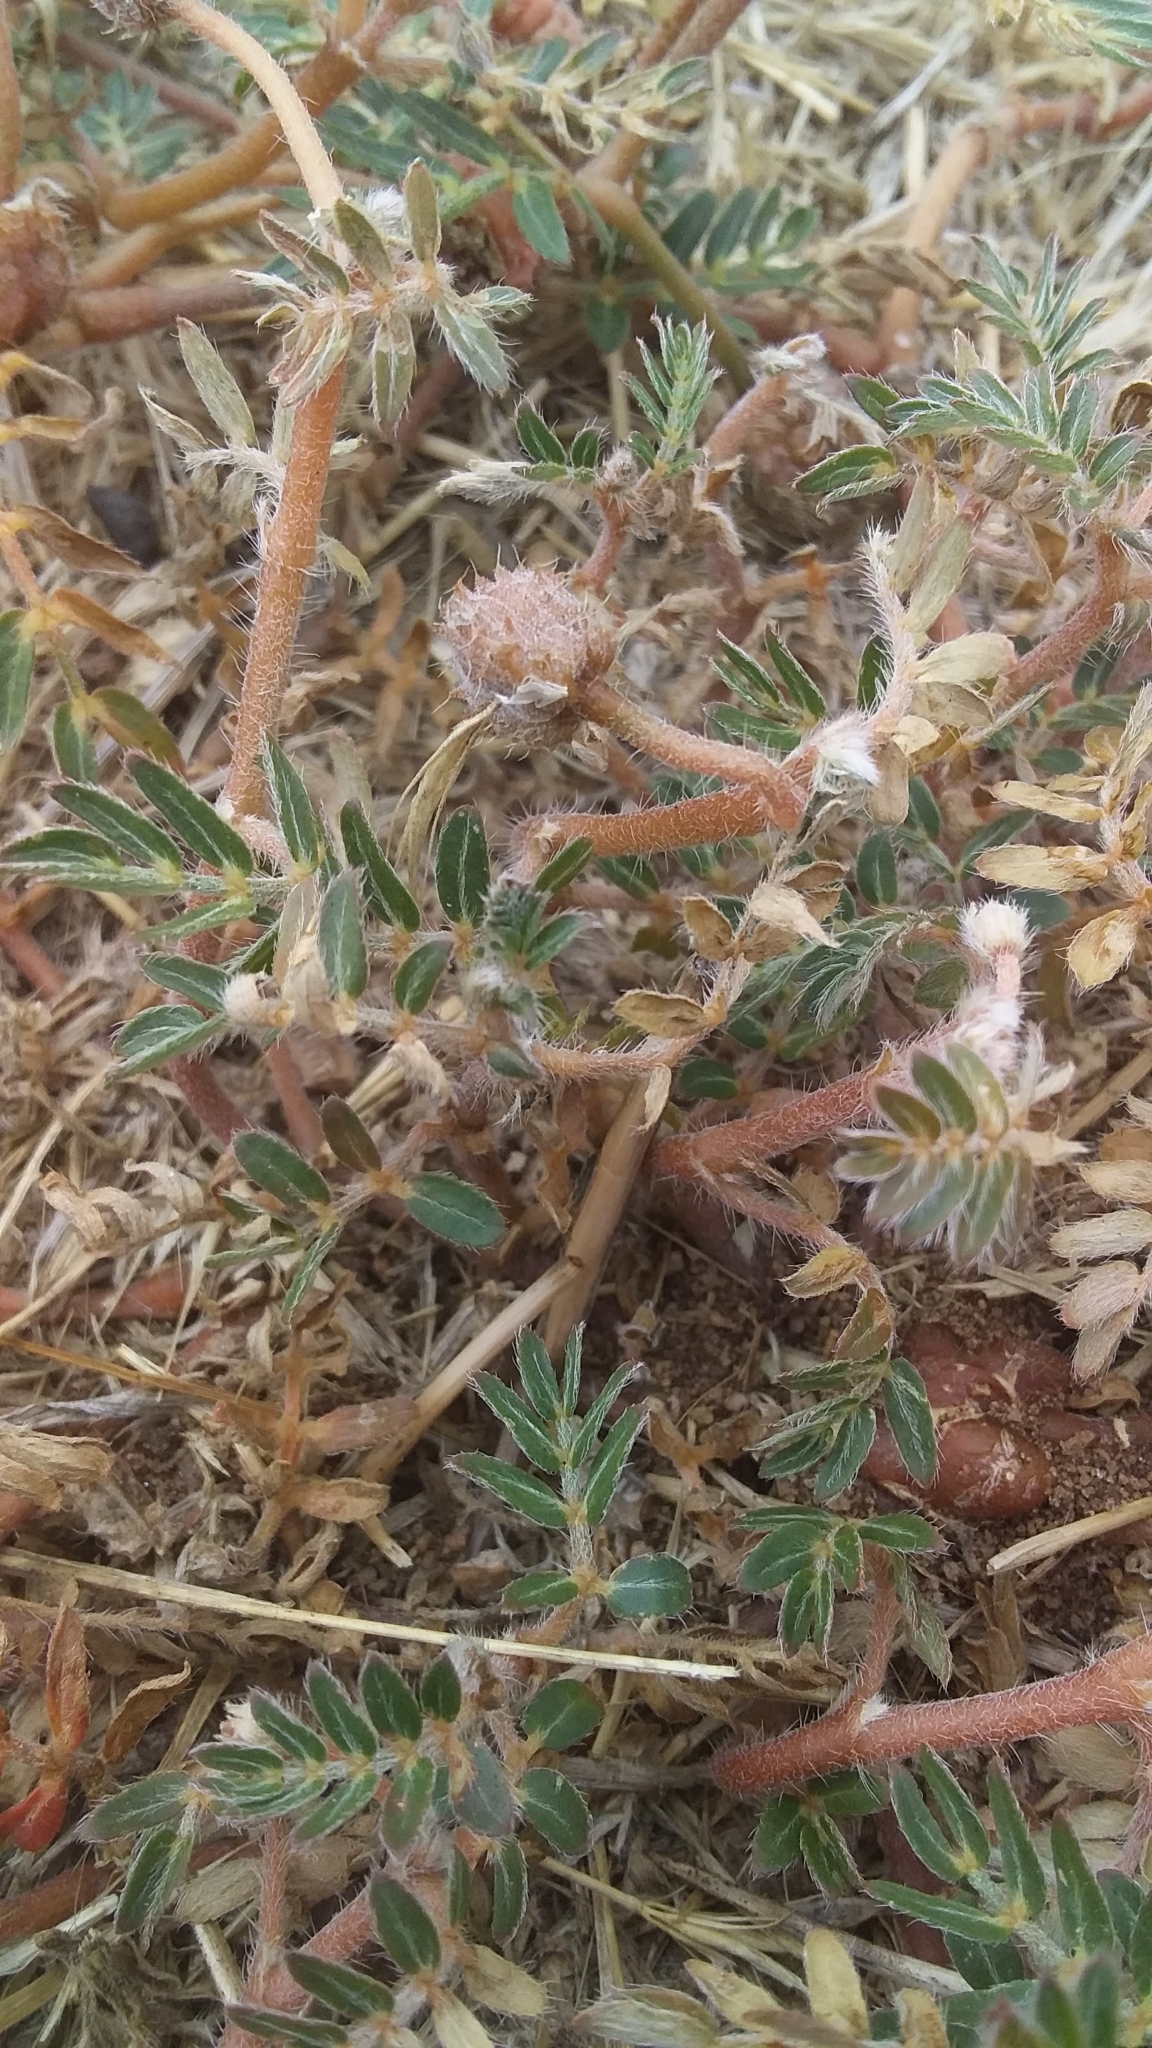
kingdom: Plantae
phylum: Tracheophyta
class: Magnoliopsida
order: Zygophyllales
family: Zygophyllaceae
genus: Tribulus
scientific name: Tribulus terrestris
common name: Puncturevine
